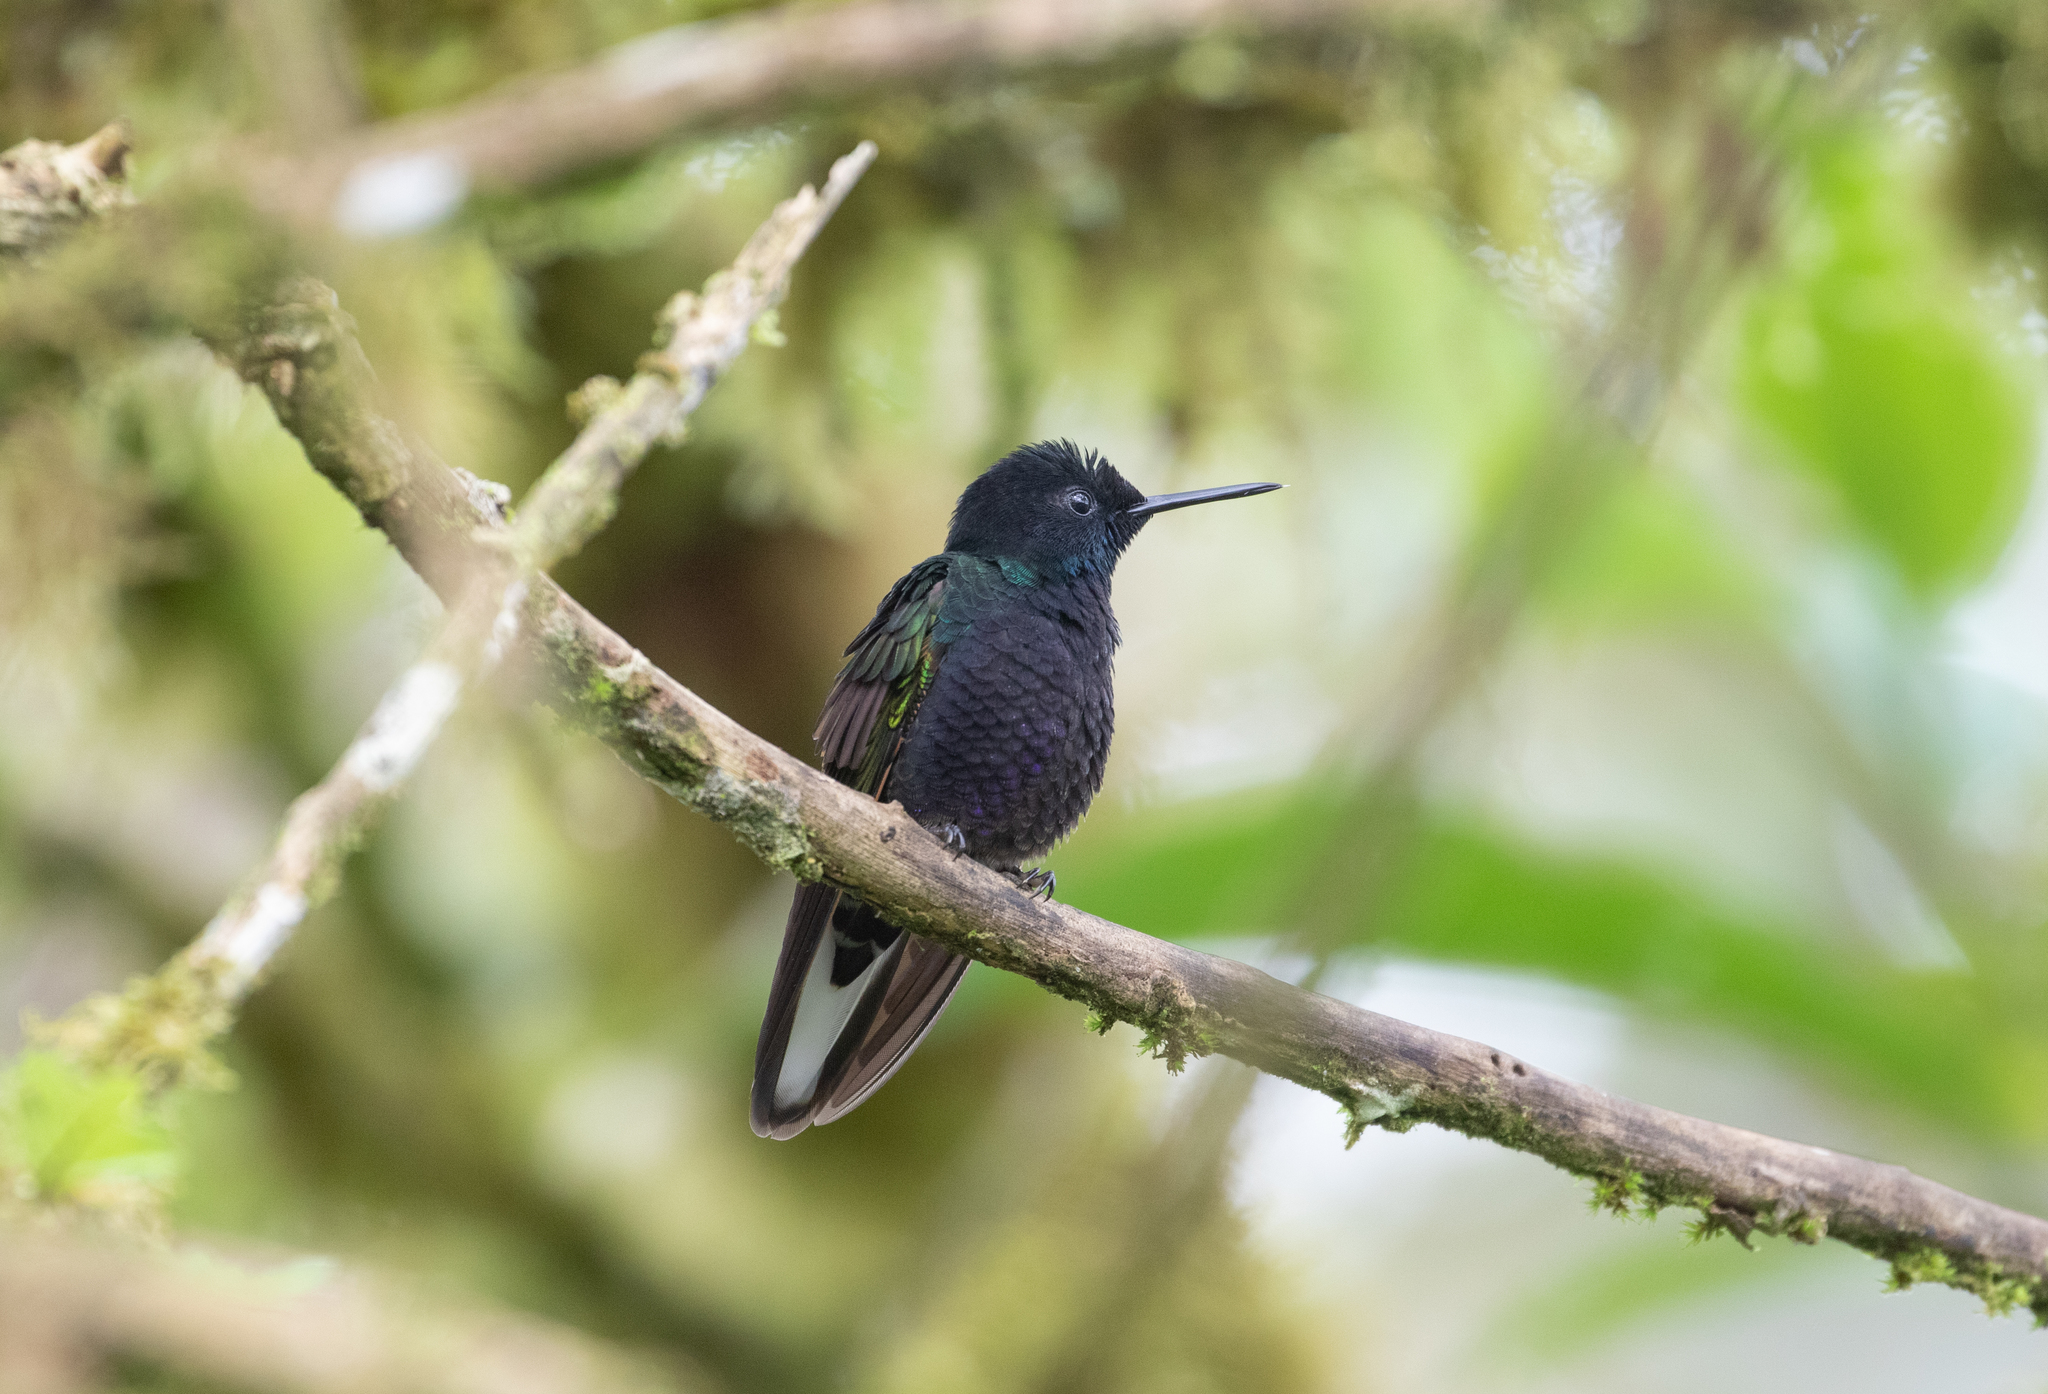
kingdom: Animalia
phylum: Chordata
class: Aves
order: Apodiformes
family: Trochilidae
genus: Boissonneaua
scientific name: Boissonneaua jardini
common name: Velvet-purple coronet
